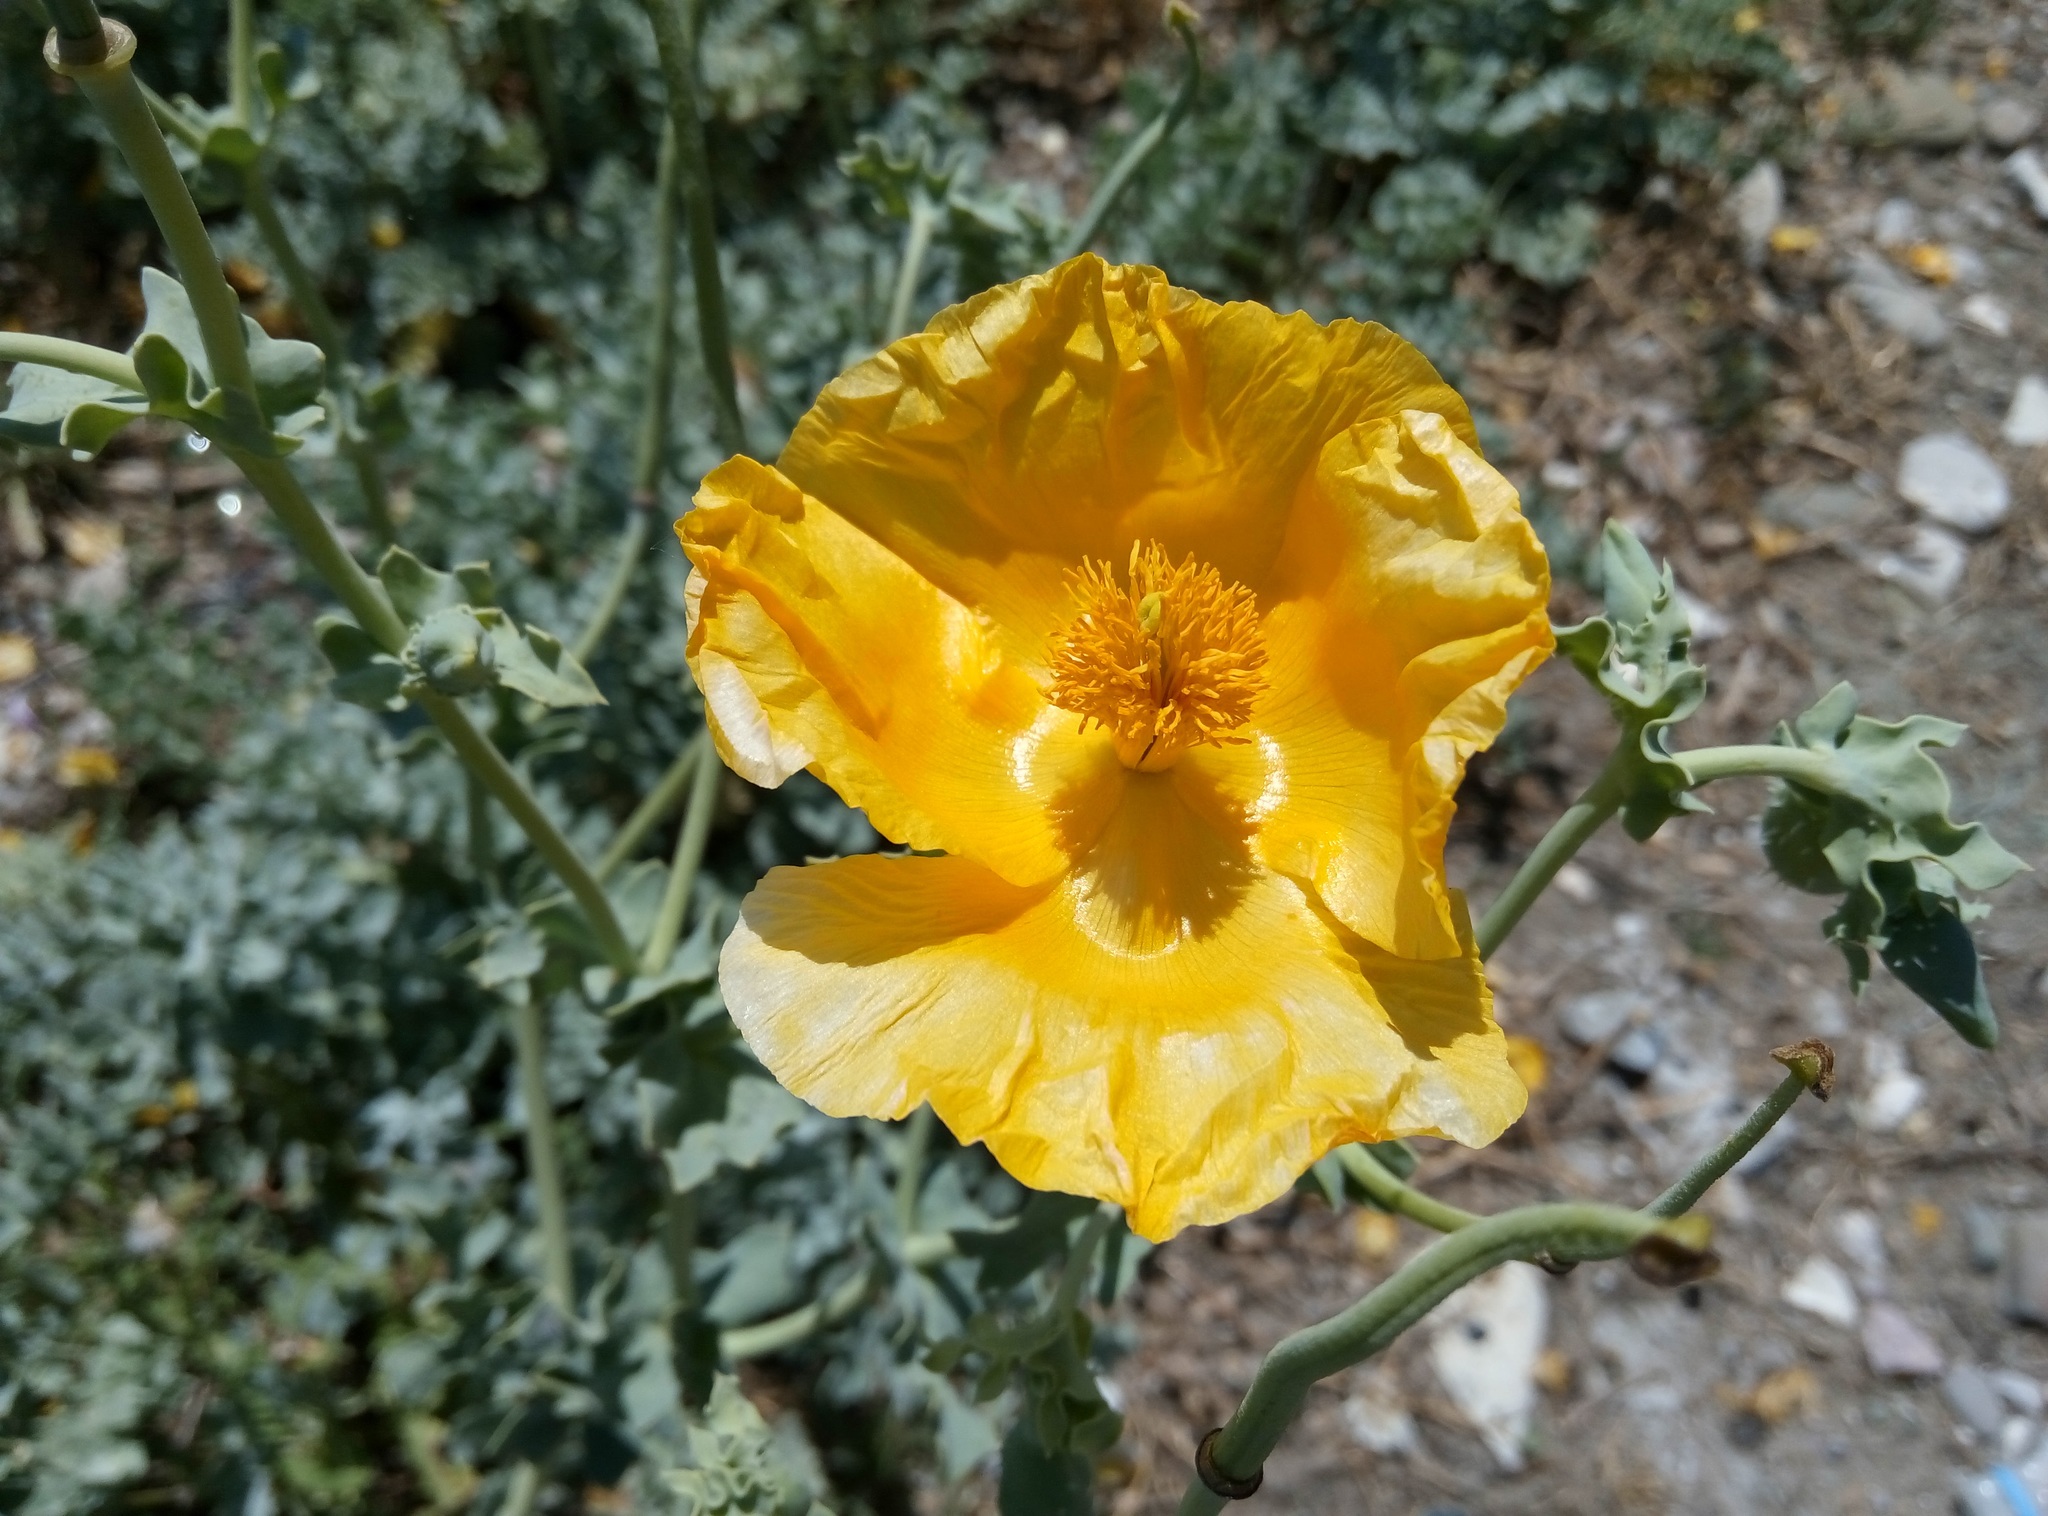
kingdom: Plantae
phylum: Tracheophyta
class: Magnoliopsida
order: Ranunculales
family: Papaveraceae
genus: Glaucium
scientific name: Glaucium flavum
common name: Yellow horned-poppy
